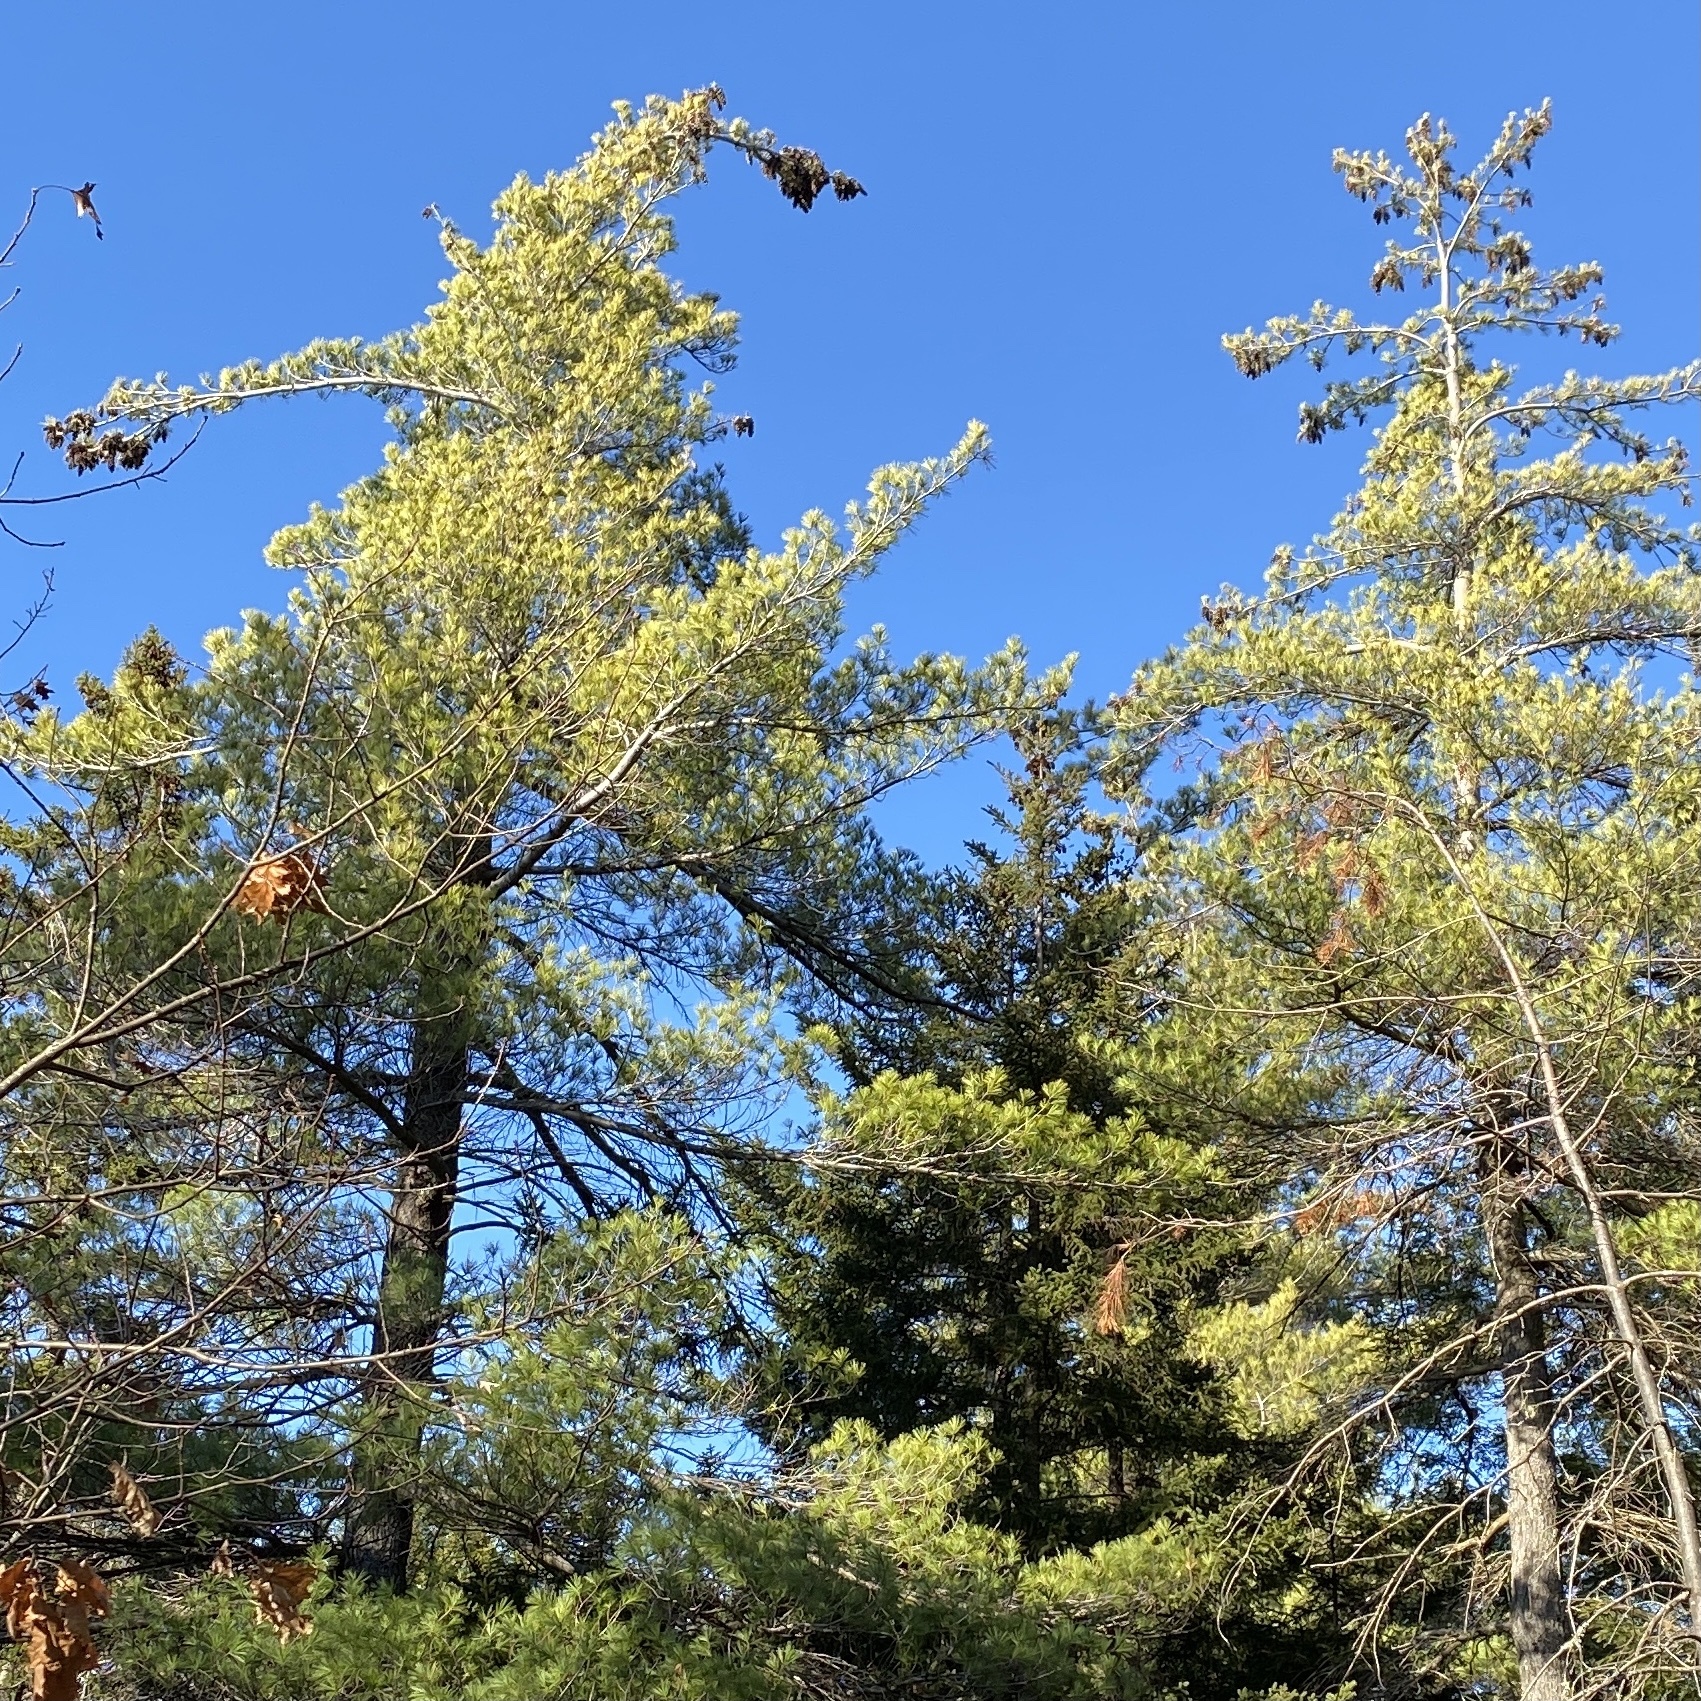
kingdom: Plantae
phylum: Tracheophyta
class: Pinopsida
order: Pinales
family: Pinaceae
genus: Pinus
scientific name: Pinus strobus
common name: Weymouth pine
